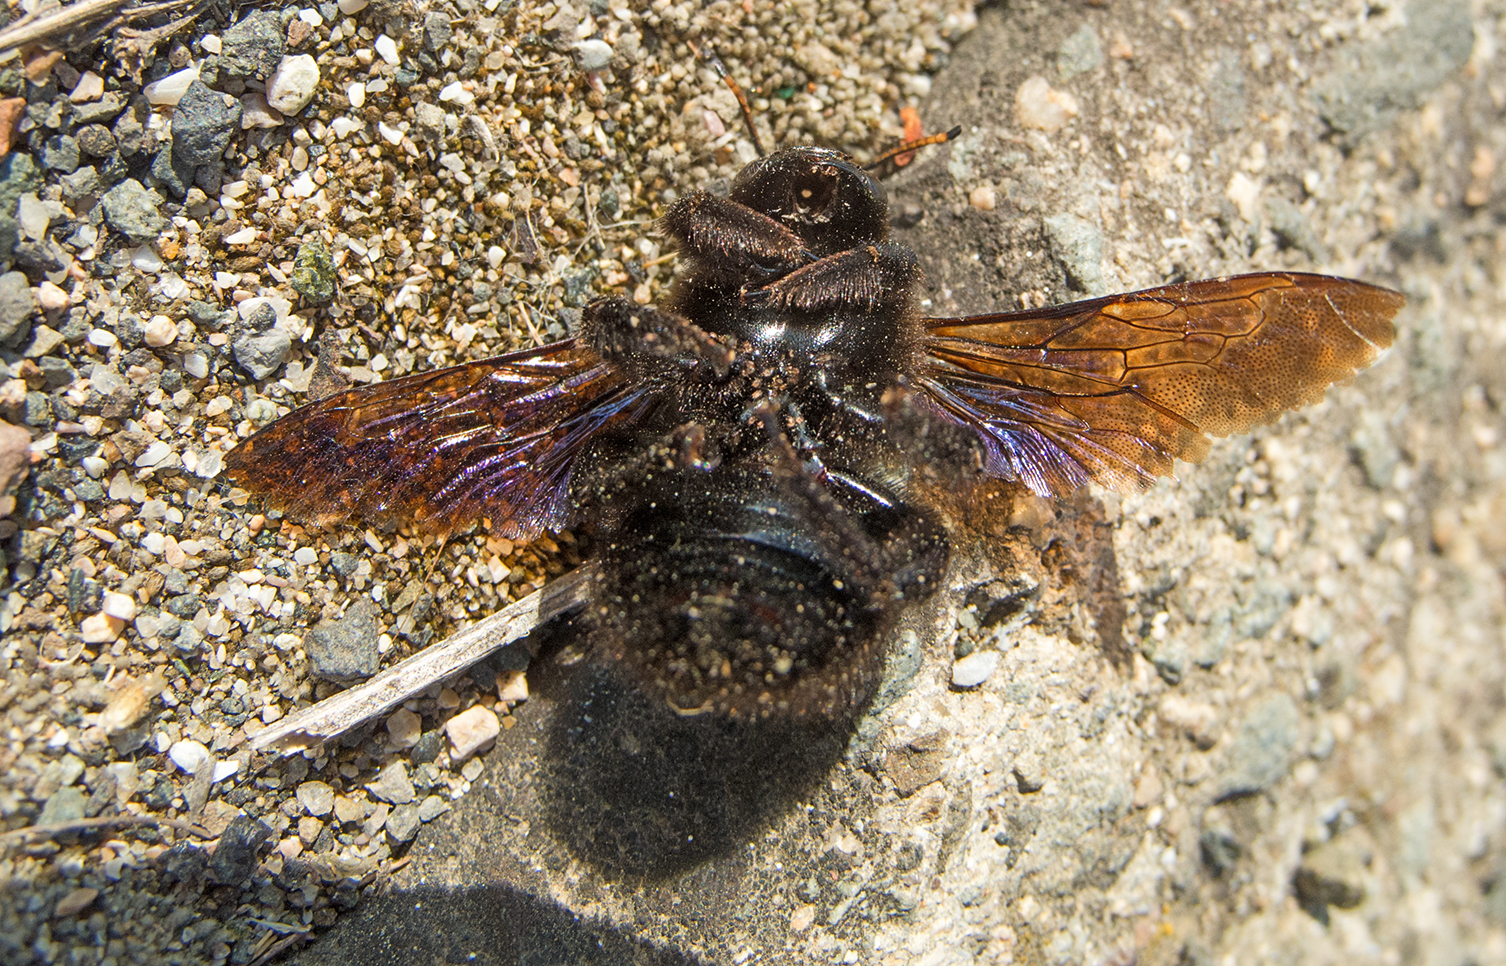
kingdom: Animalia
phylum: Arthropoda
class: Insecta
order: Hymenoptera
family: Apidae
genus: Xylocopa
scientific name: Xylocopa violacea
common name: Violet carpenter bee
